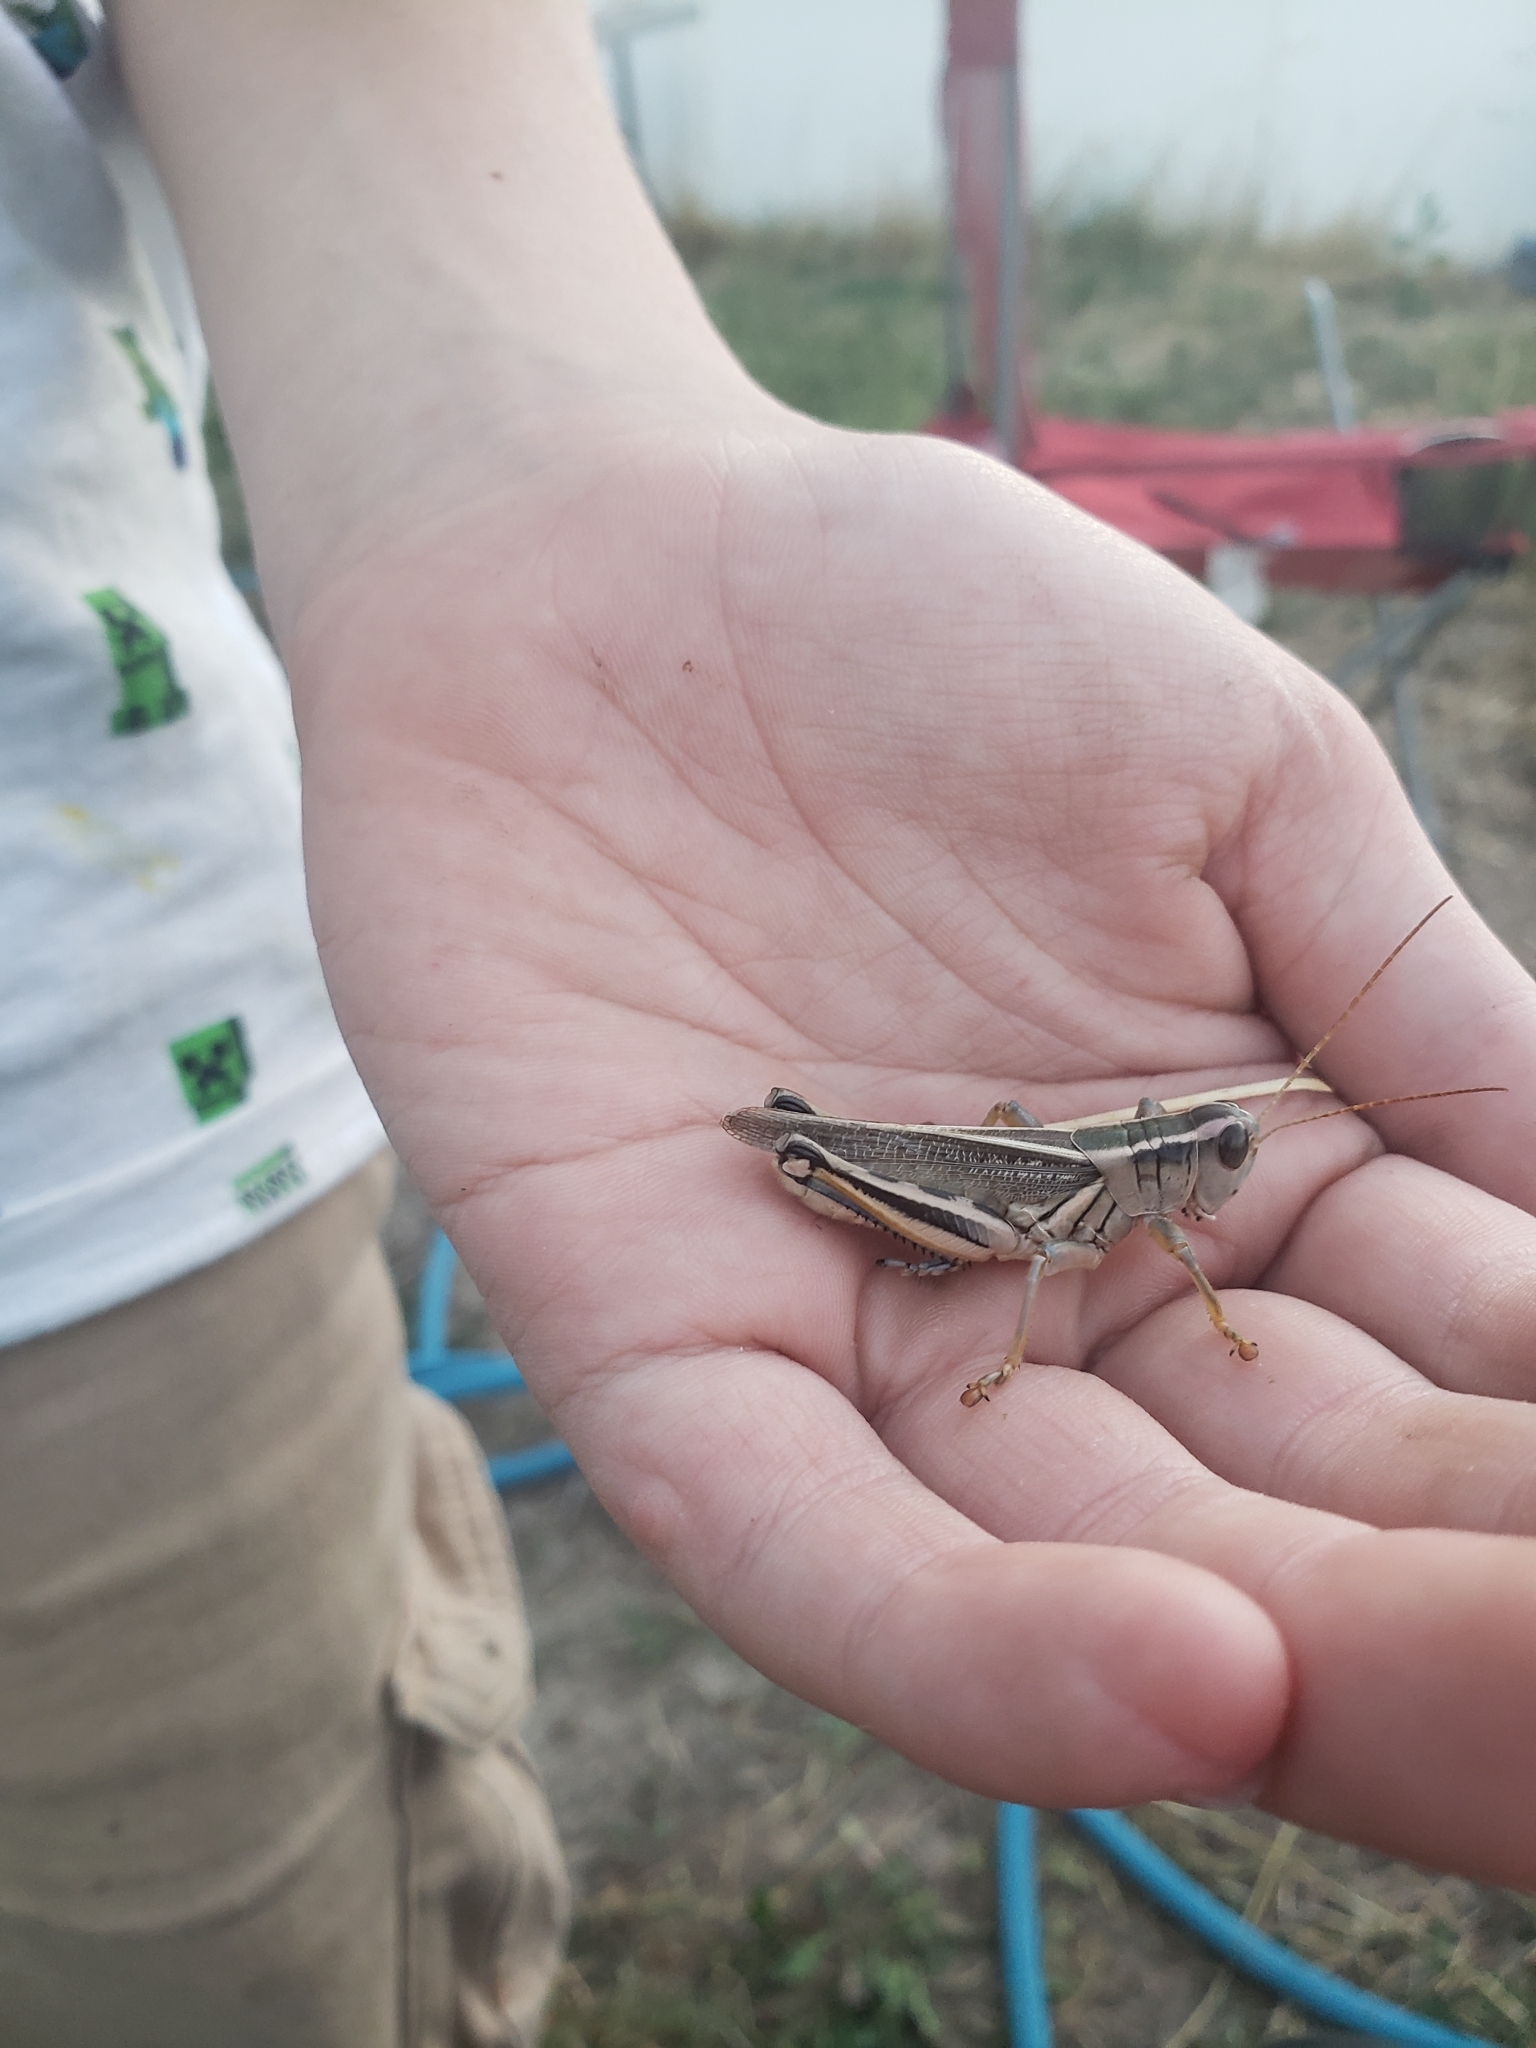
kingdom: Animalia
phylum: Arthropoda
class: Insecta
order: Orthoptera
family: Acrididae
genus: Melanoplus
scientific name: Melanoplus bivittatus
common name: Two-striped grasshopper
